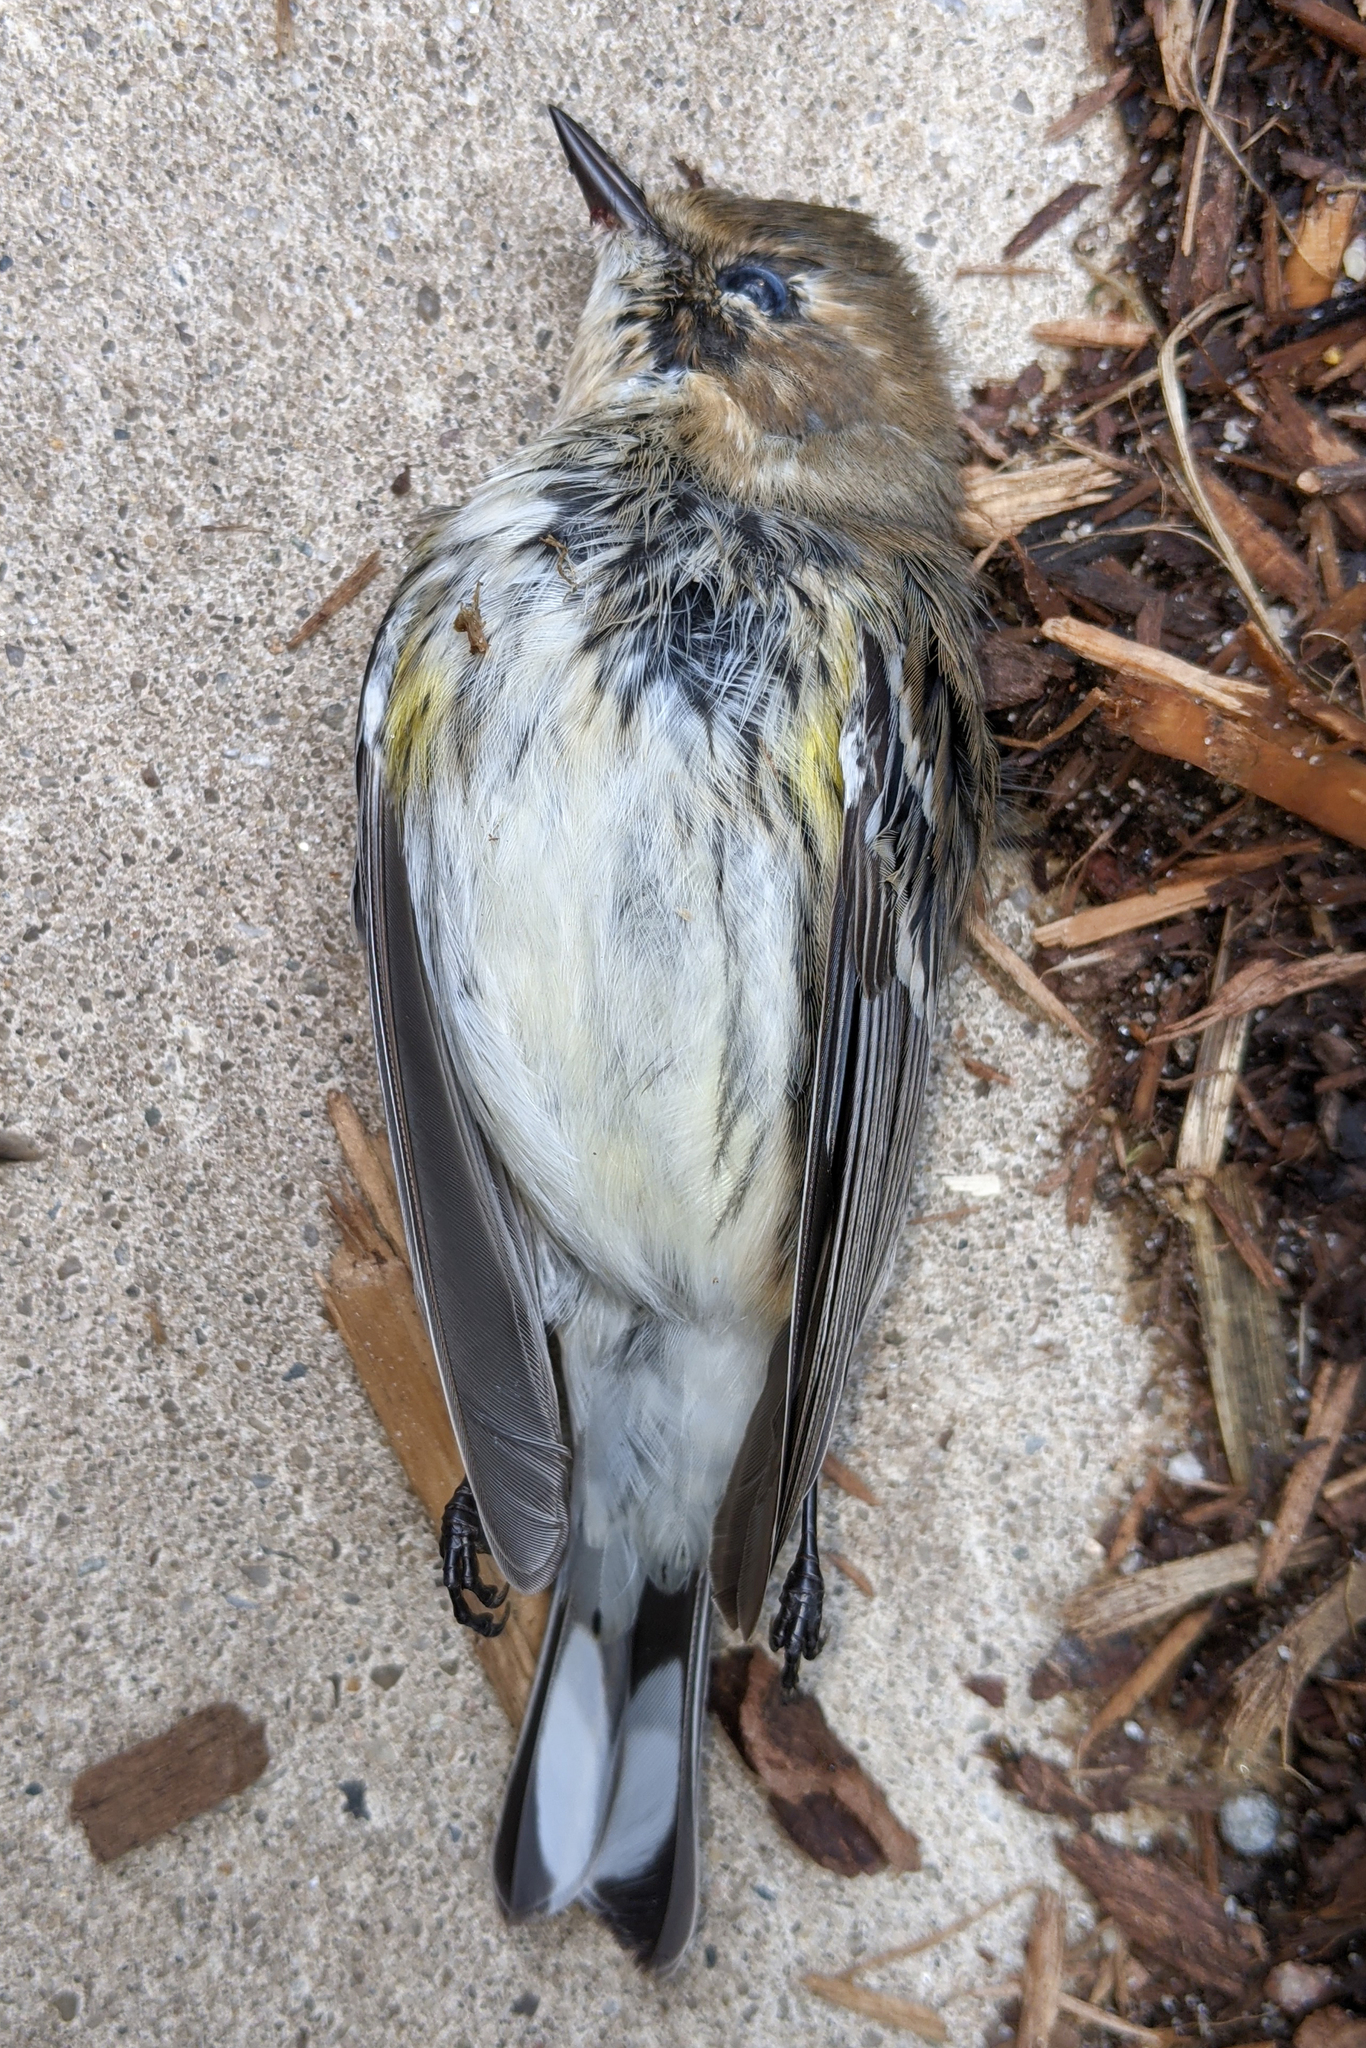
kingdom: Animalia
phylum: Chordata
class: Aves
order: Passeriformes
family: Parulidae
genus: Setophaga
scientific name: Setophaga coronata
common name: Myrtle warbler
